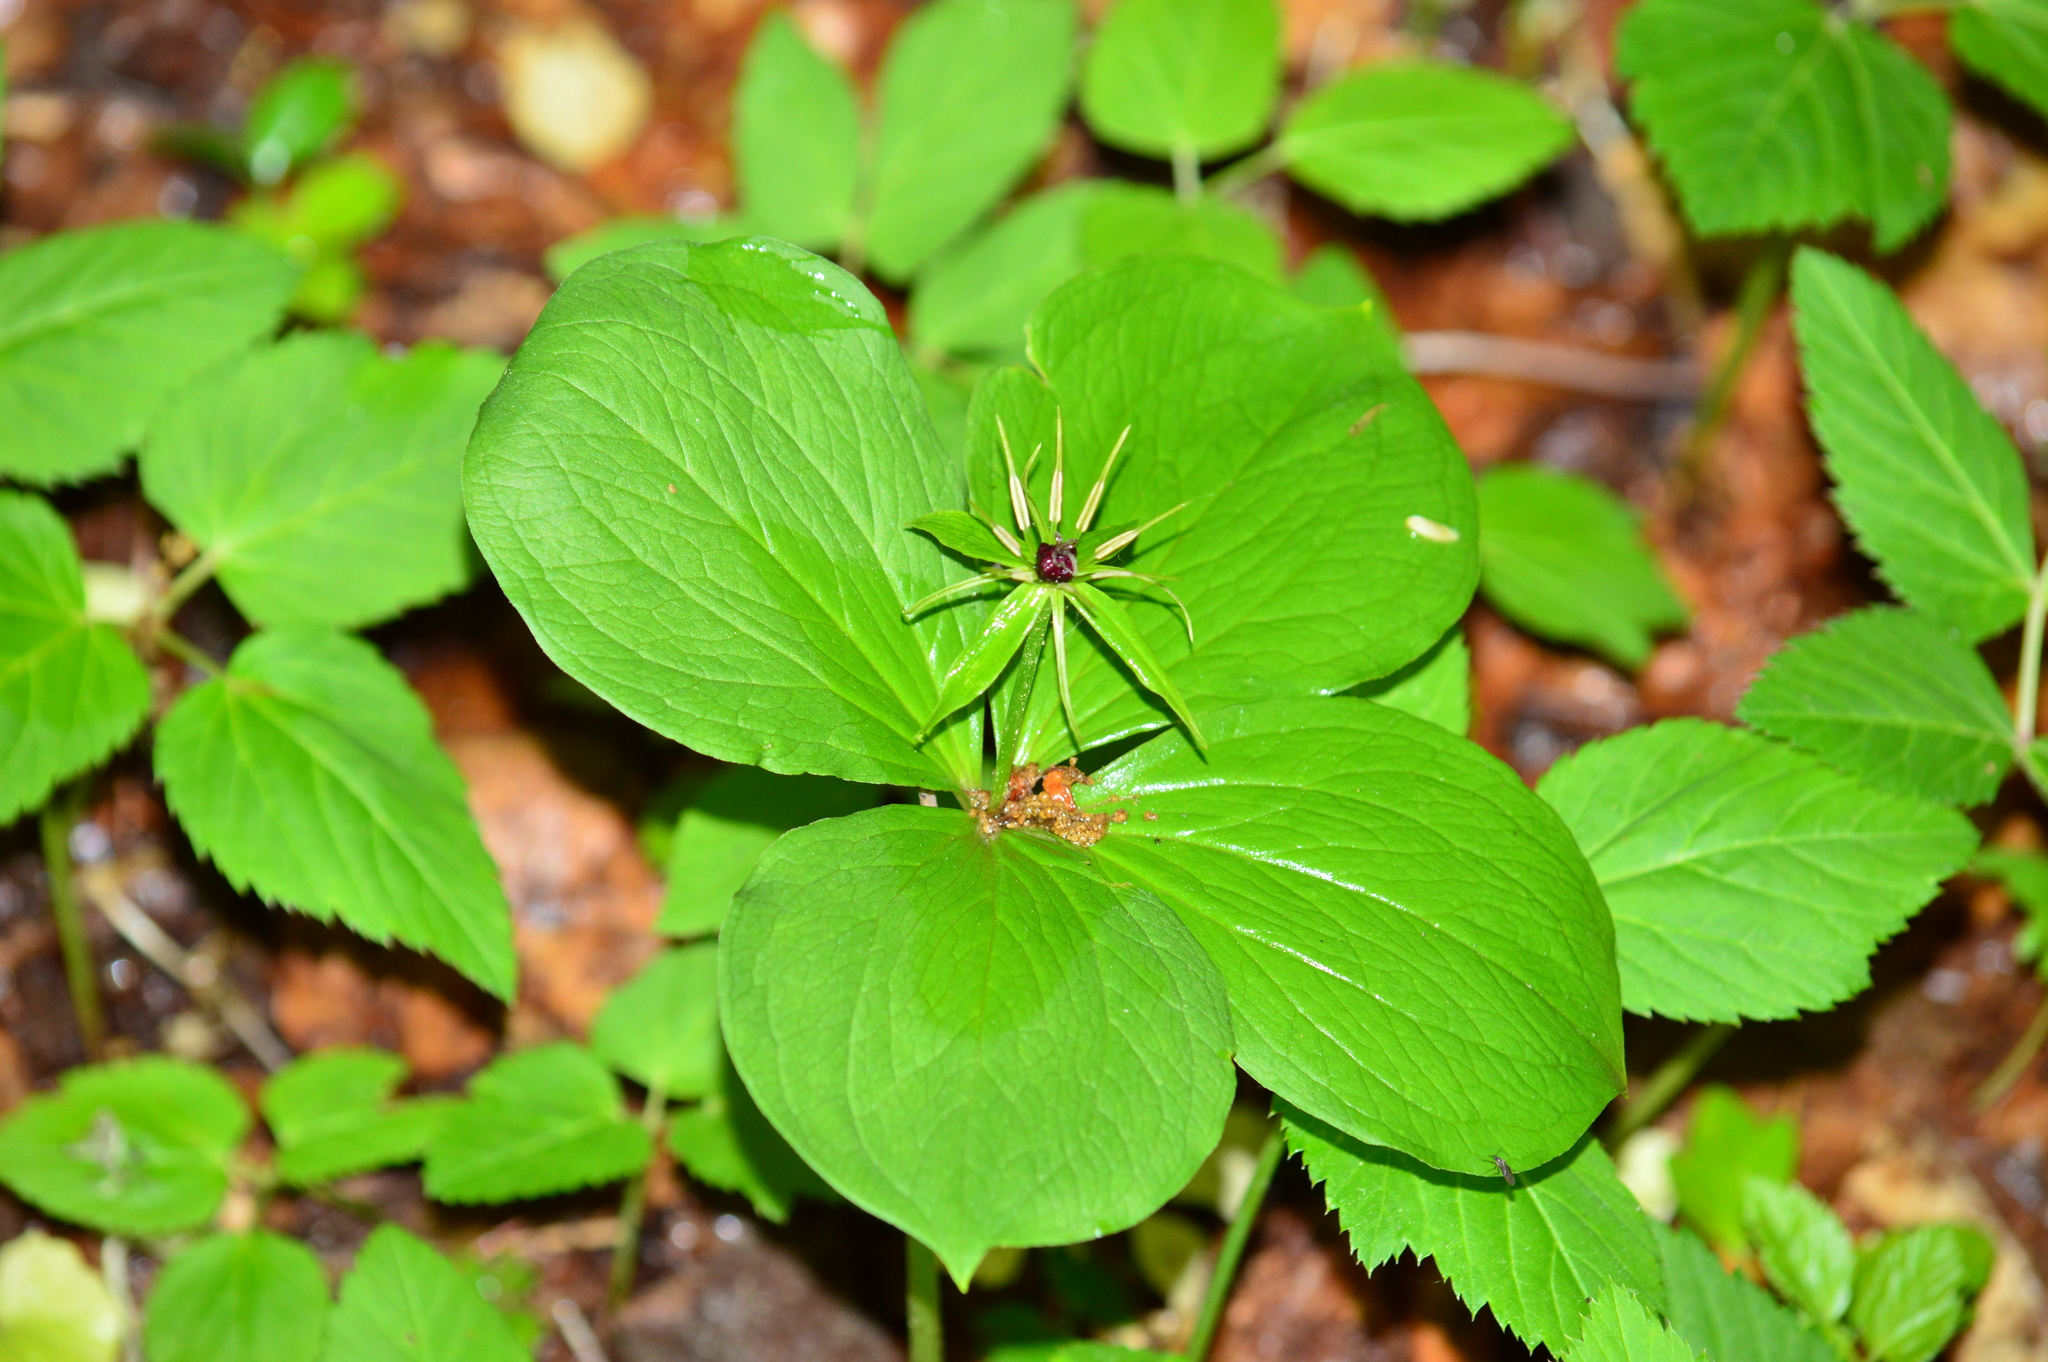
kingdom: Plantae
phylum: Tracheophyta
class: Liliopsida
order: Liliales
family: Melanthiaceae
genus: Paris
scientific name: Paris quadrifolia
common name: Herb-paris
